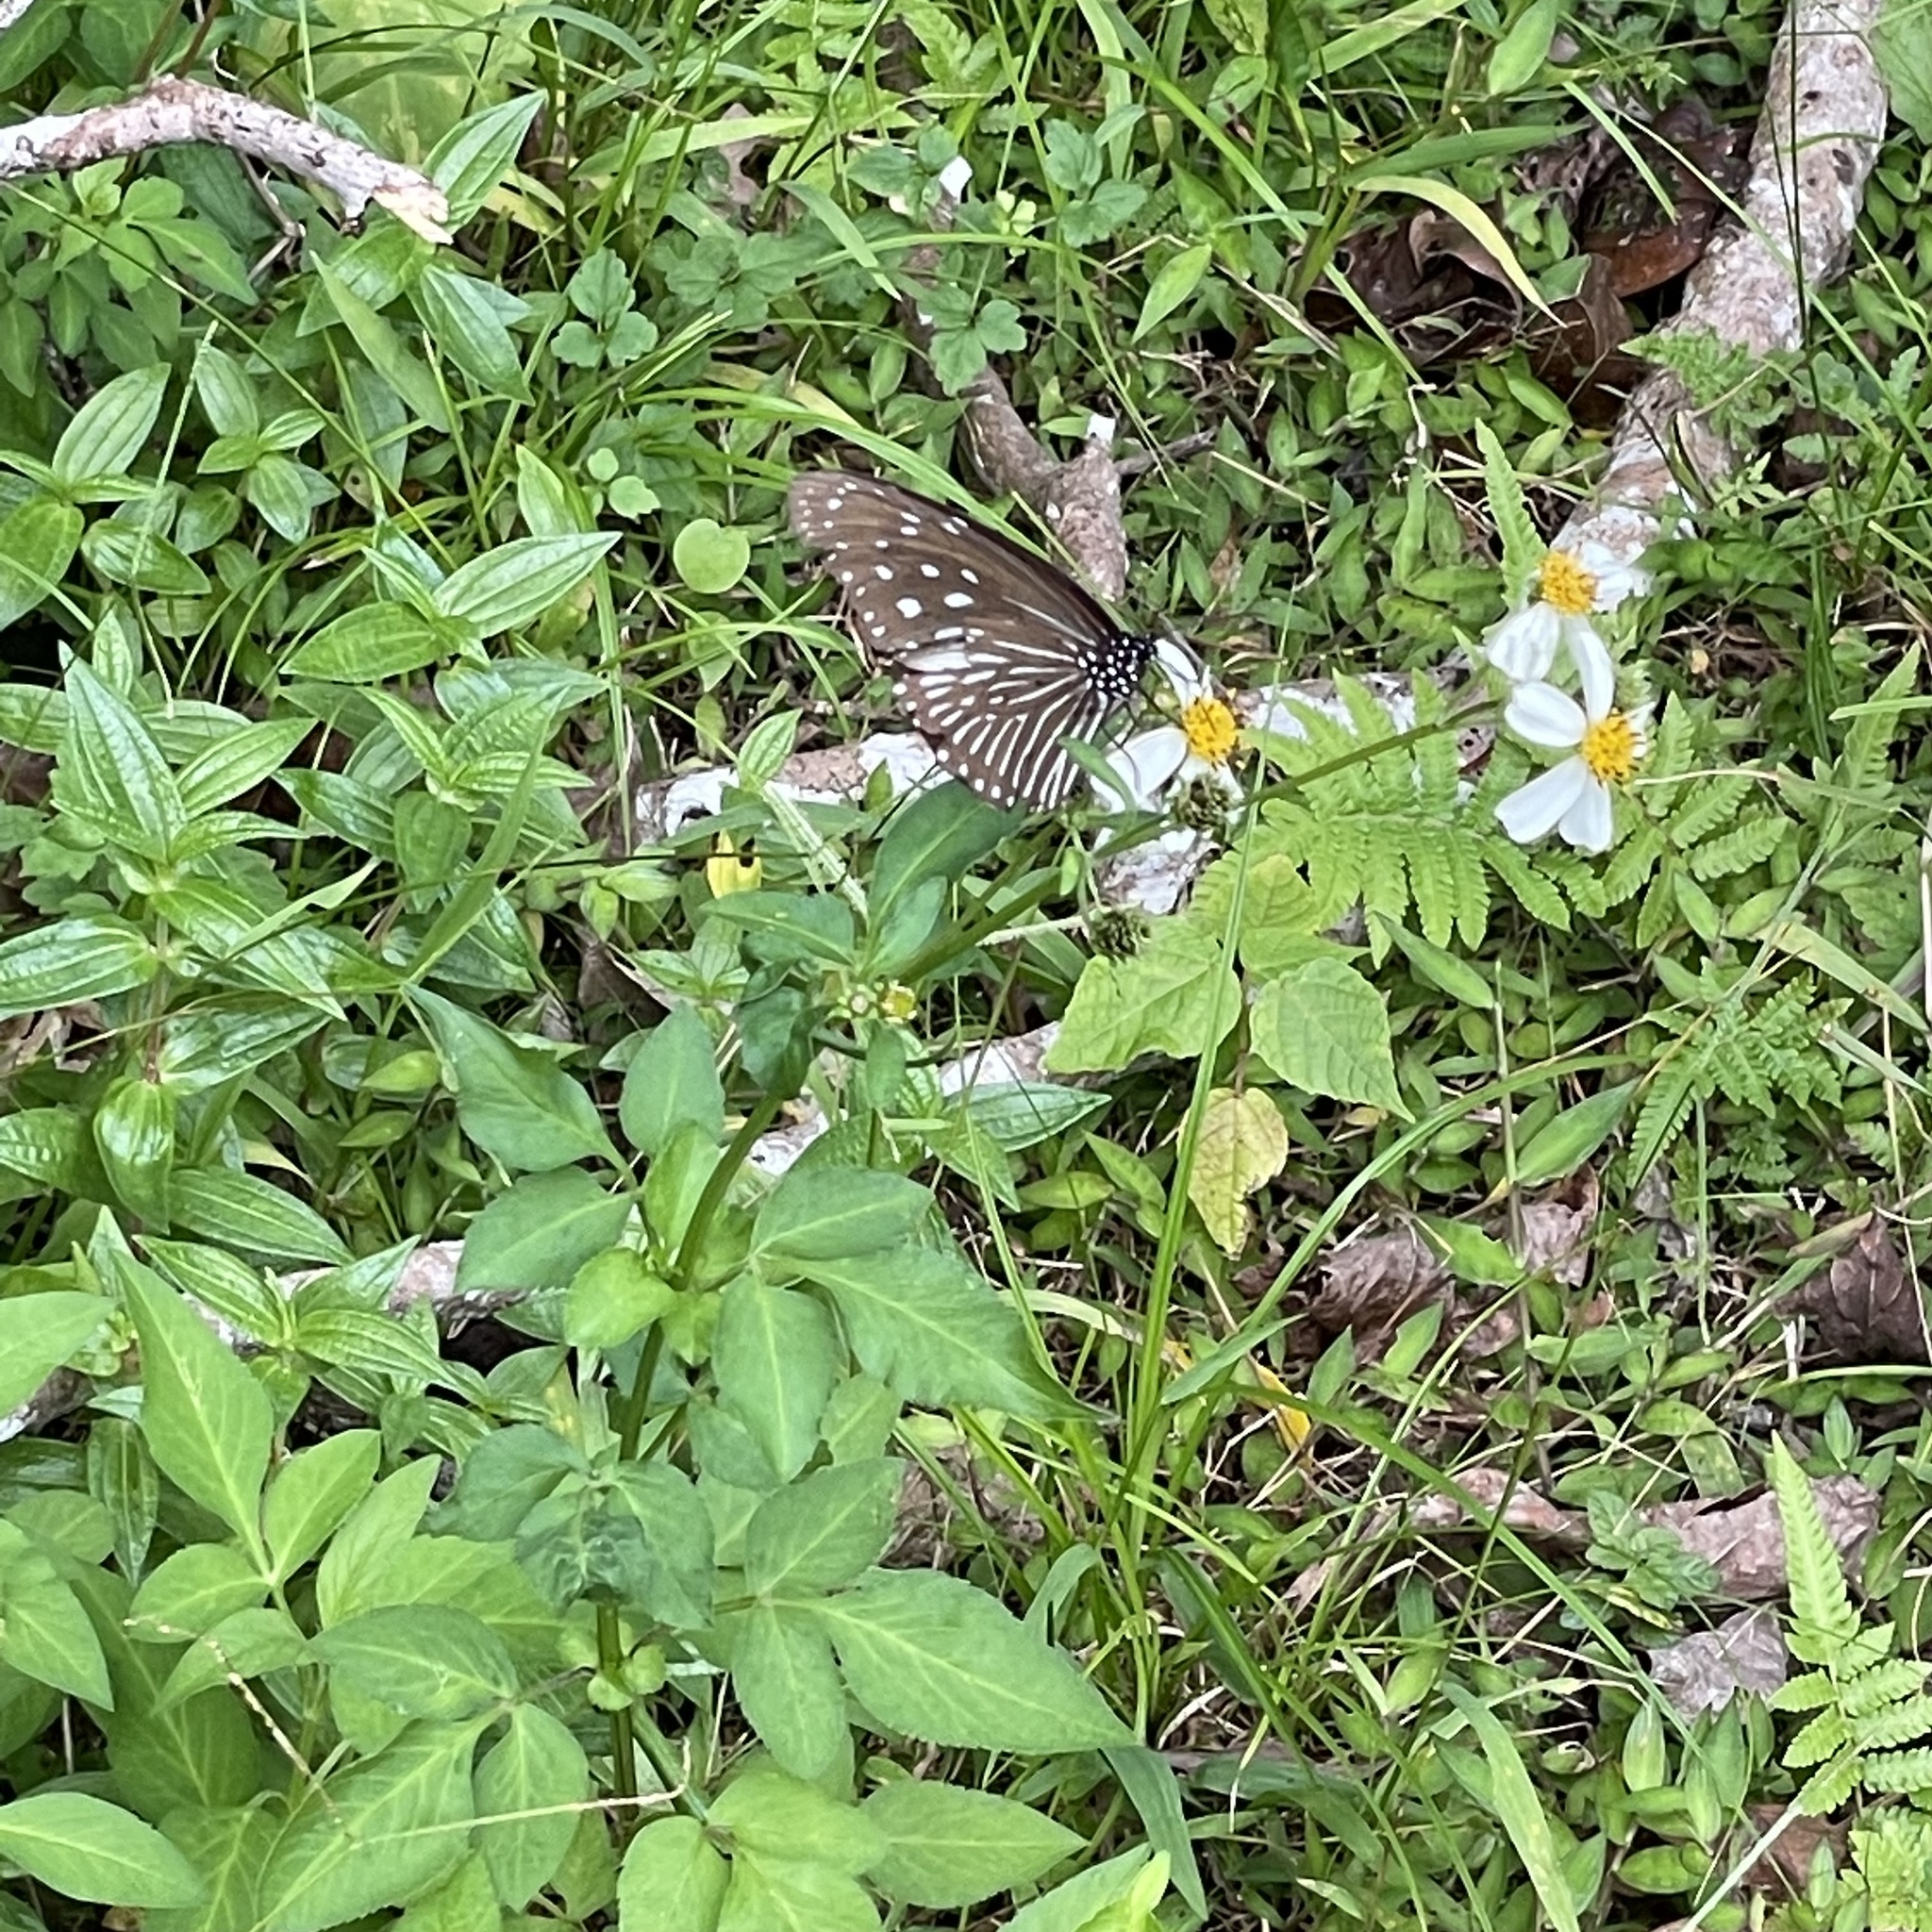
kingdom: Animalia
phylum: Arthropoda
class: Insecta
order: Lepidoptera
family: Nymphalidae
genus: Euploea
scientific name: Euploea mulciber
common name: Striped blue crow butterfly
